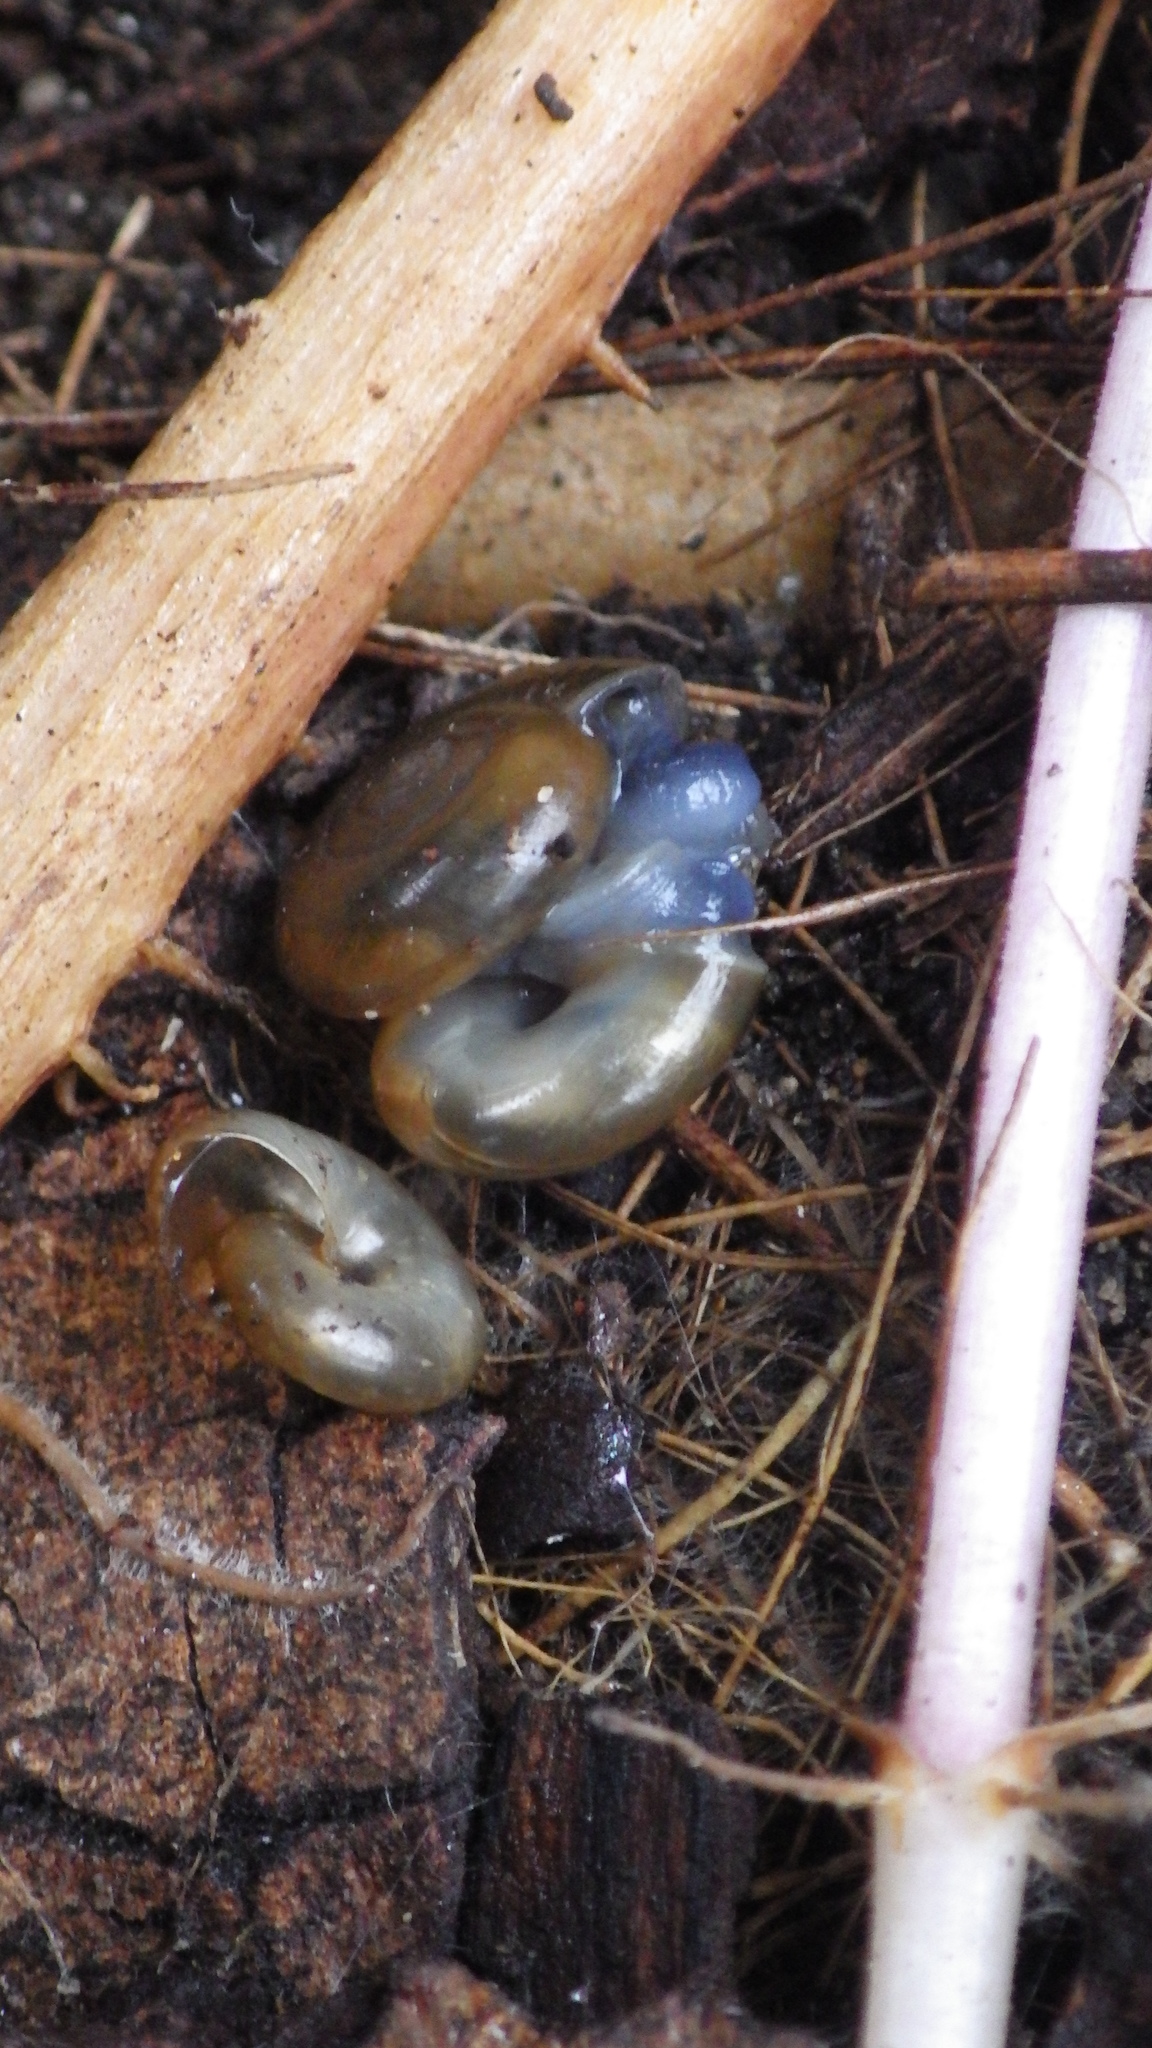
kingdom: Animalia
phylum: Mollusca
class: Gastropoda
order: Stylommatophora
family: Oxychilidae
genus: Oxychilus
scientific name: Oxychilus draparnaudi
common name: Draparnaud's glass snail
